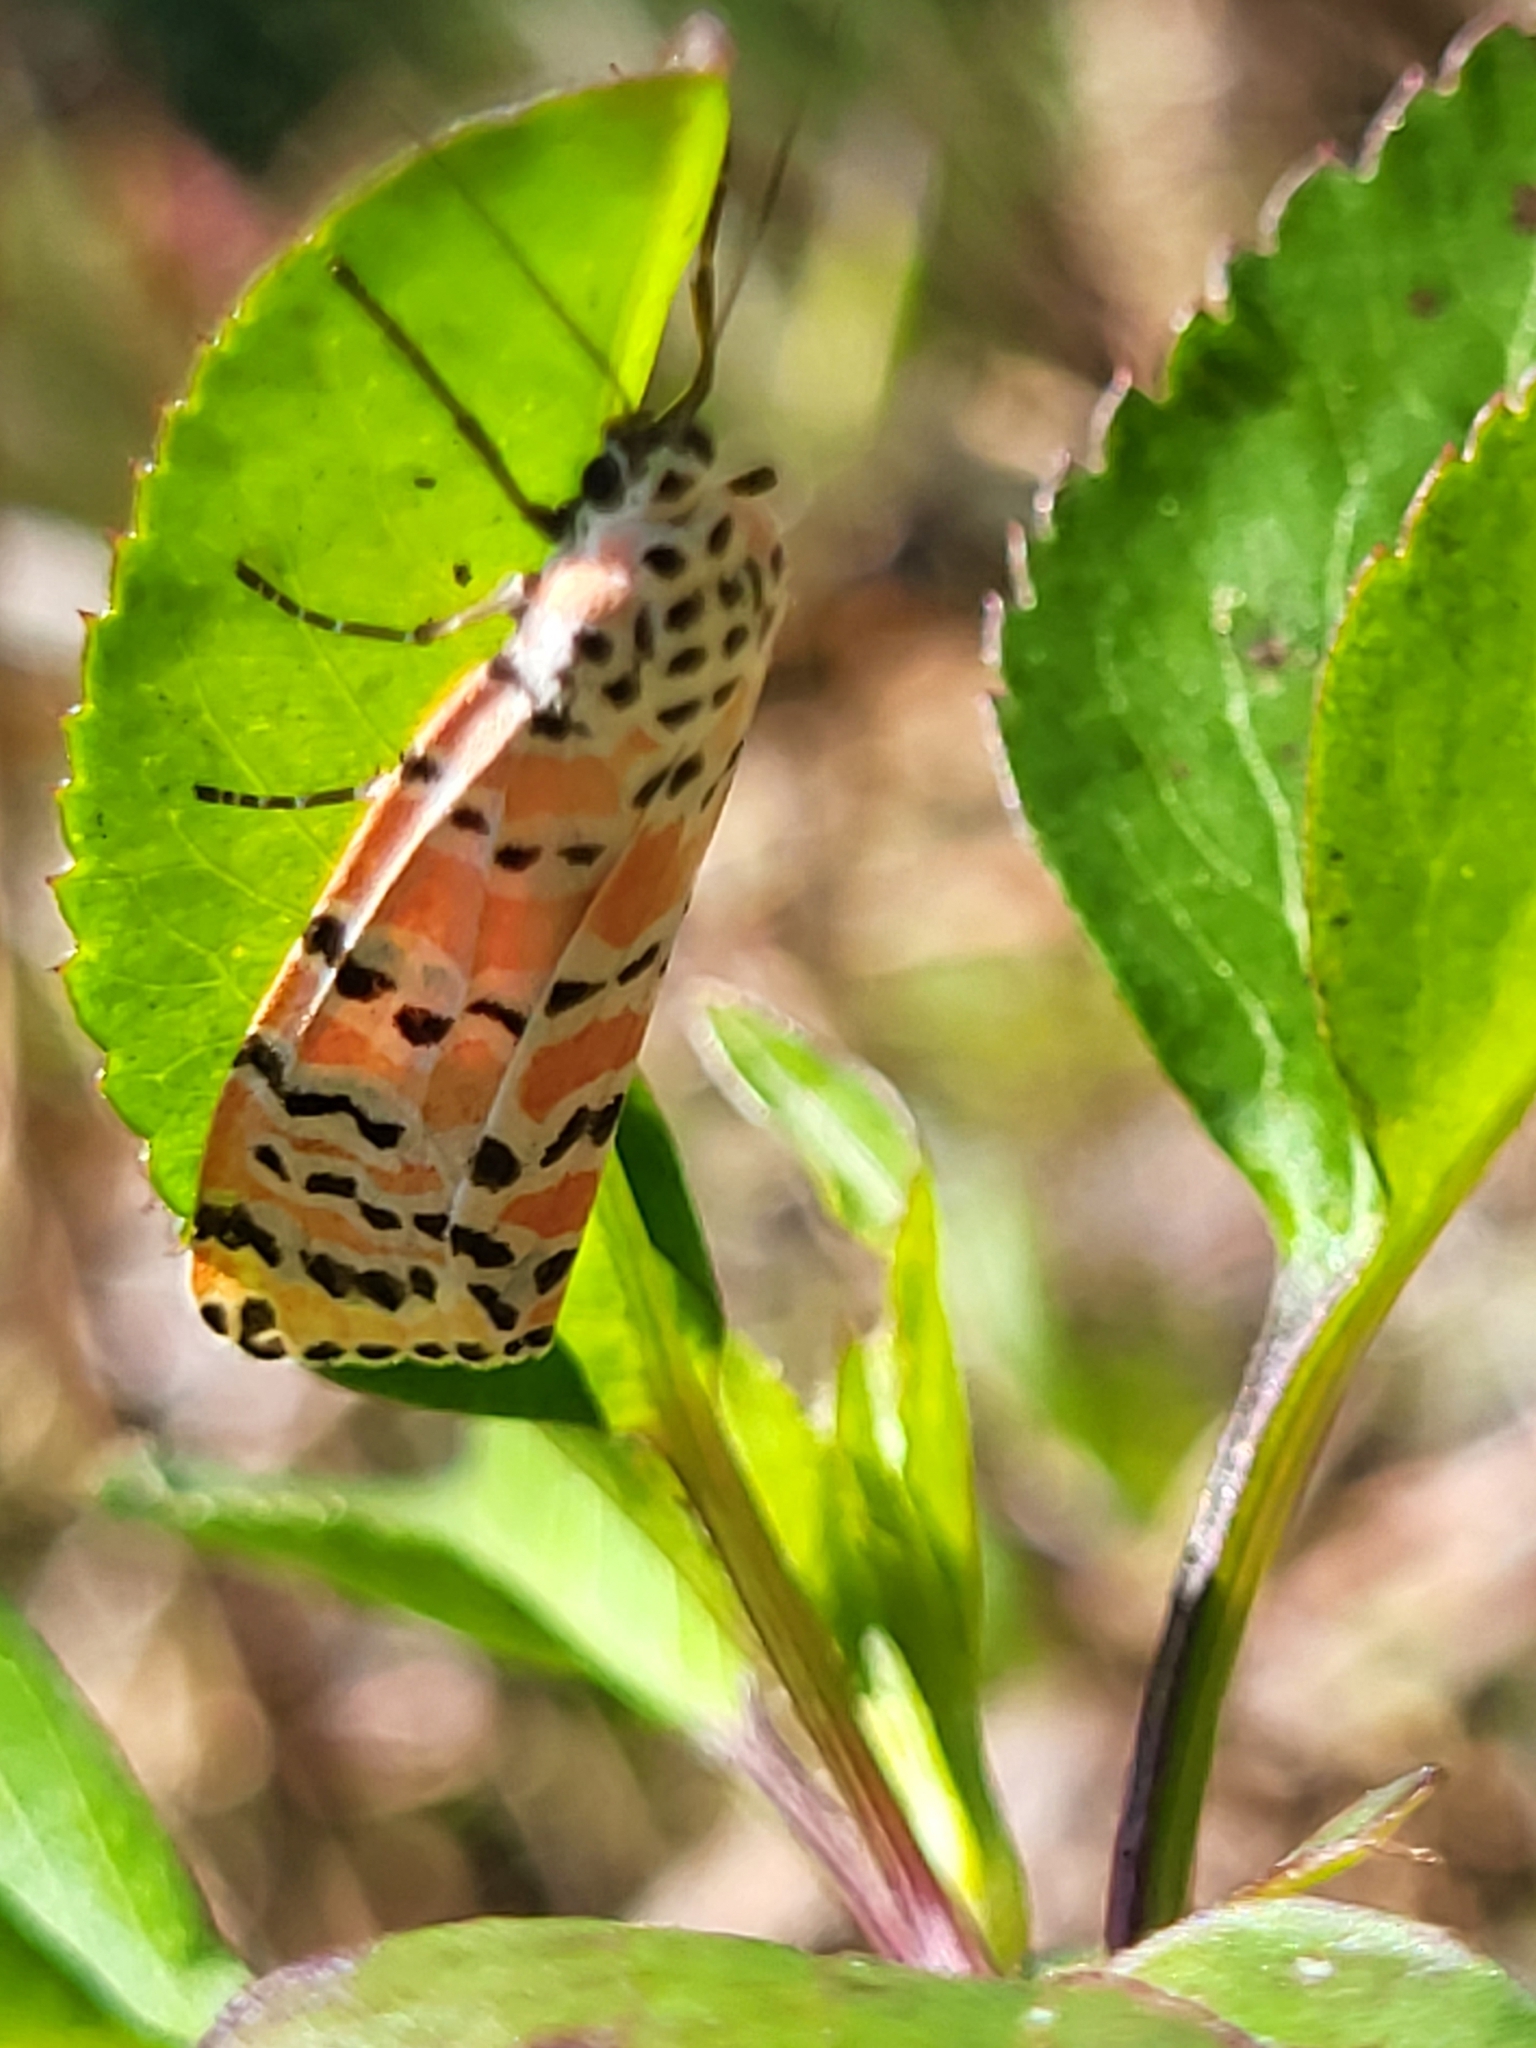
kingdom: Animalia
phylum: Arthropoda
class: Insecta
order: Lepidoptera
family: Erebidae
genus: Utetheisa
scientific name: Utetheisa ornatrix
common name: Beautiful utetheisa
